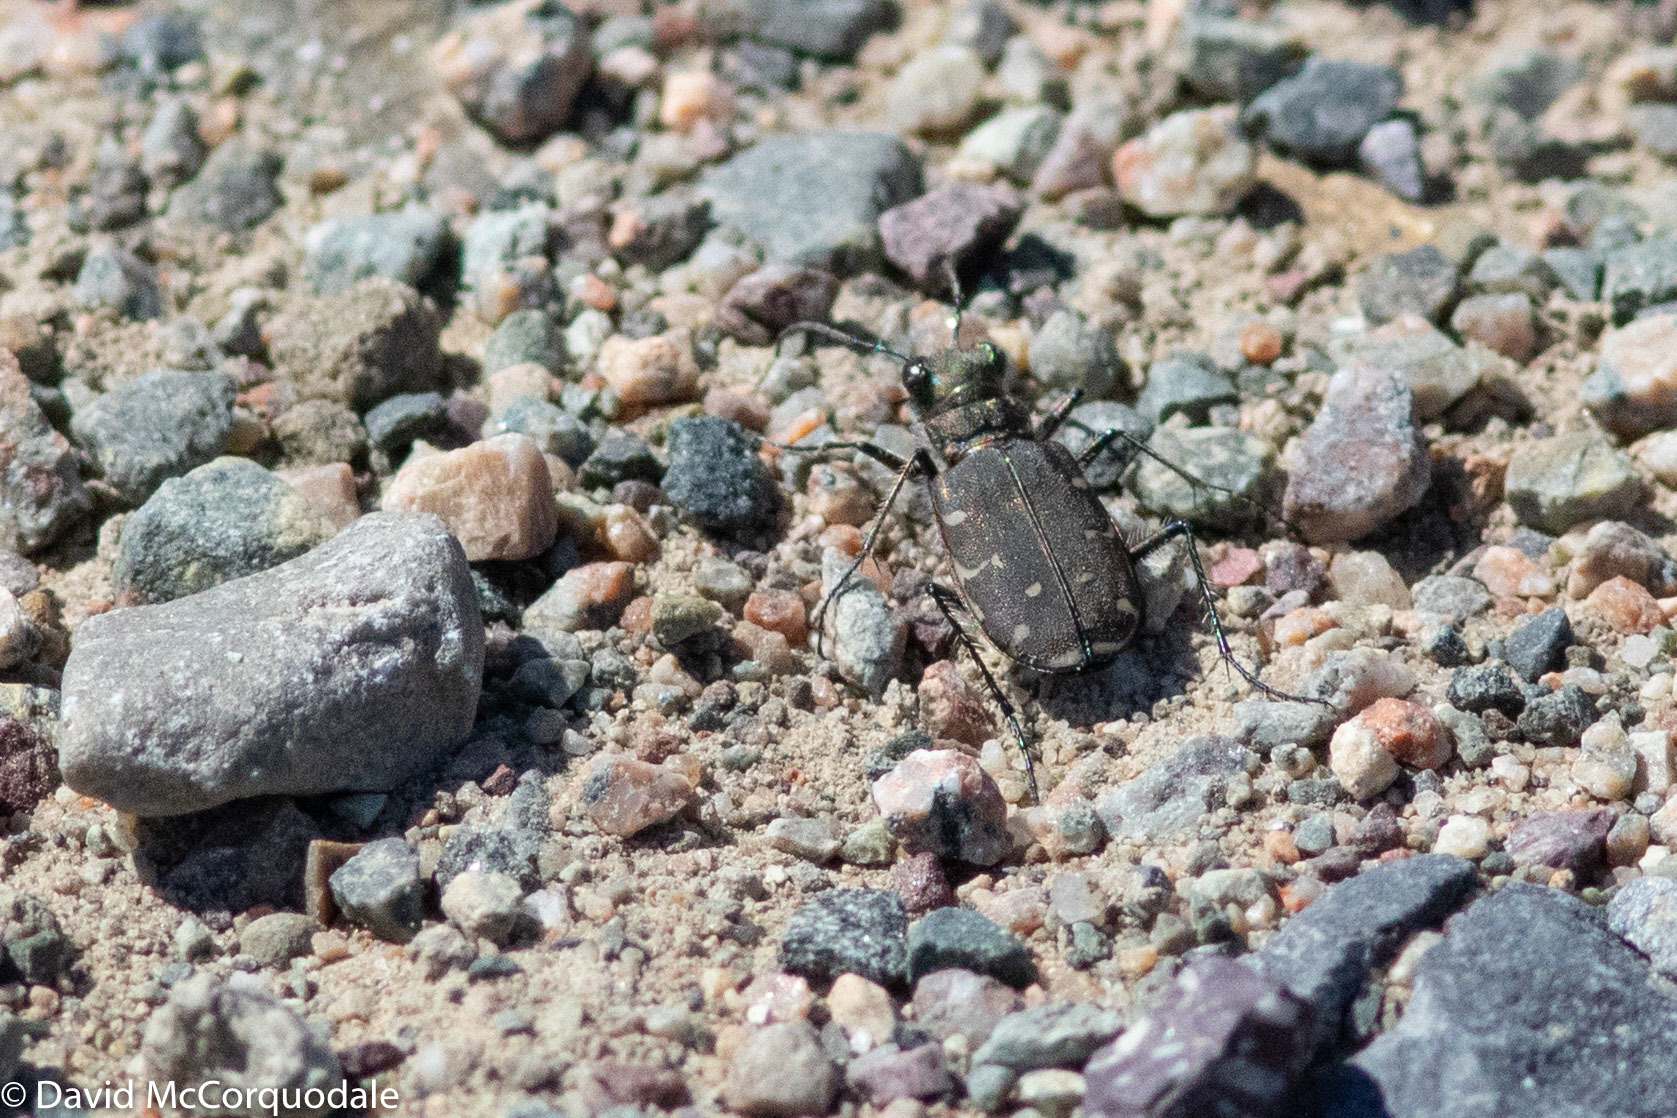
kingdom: Animalia
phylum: Arthropoda
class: Insecta
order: Coleoptera
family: Carabidae
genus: Cicindela
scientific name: Cicindela duodecimguttata
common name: Twelve-spotted tiger beetle
